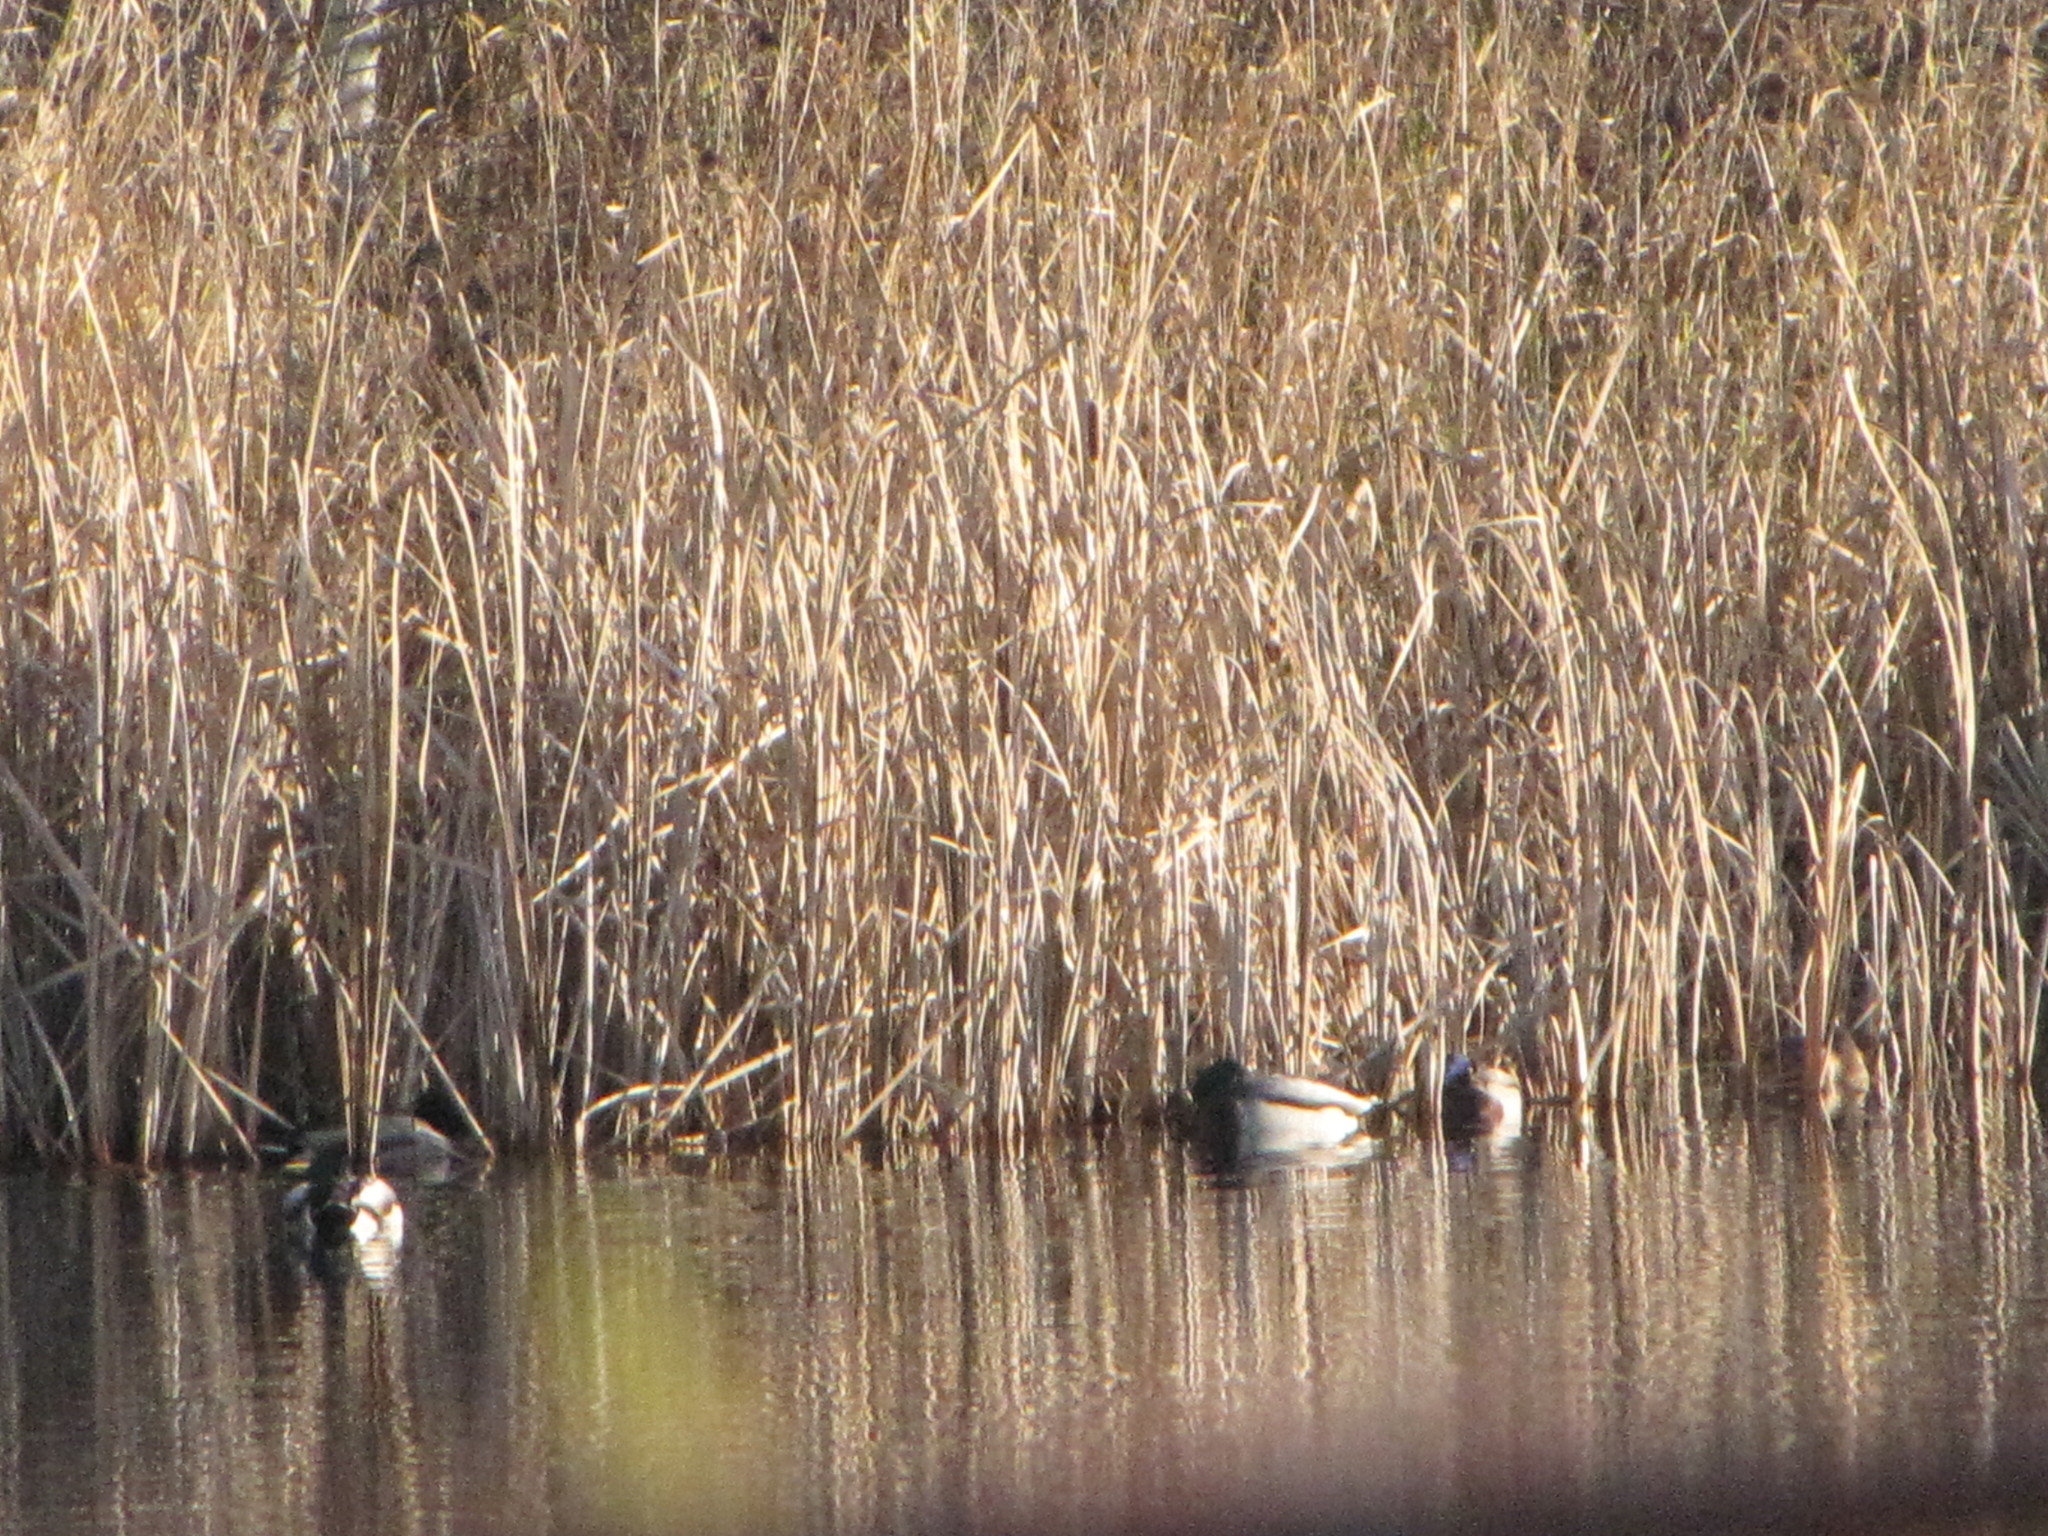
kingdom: Animalia
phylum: Chordata
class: Aves
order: Anseriformes
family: Anatidae
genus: Anas
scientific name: Anas platyrhynchos
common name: Mallard
